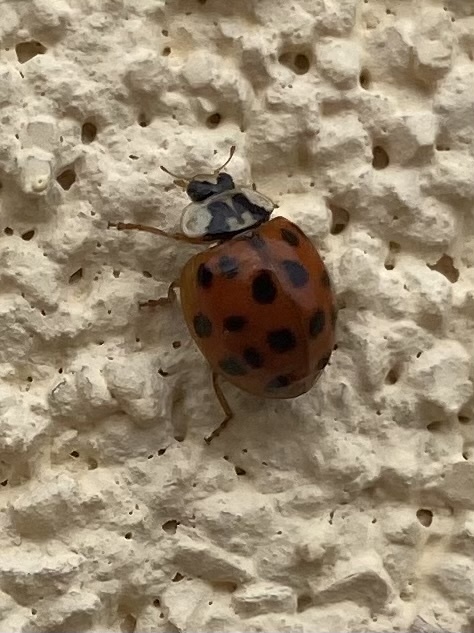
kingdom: Animalia
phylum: Arthropoda
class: Insecta
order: Coleoptera
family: Coccinellidae
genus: Harmonia
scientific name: Harmonia axyridis
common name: Harlequin ladybird
